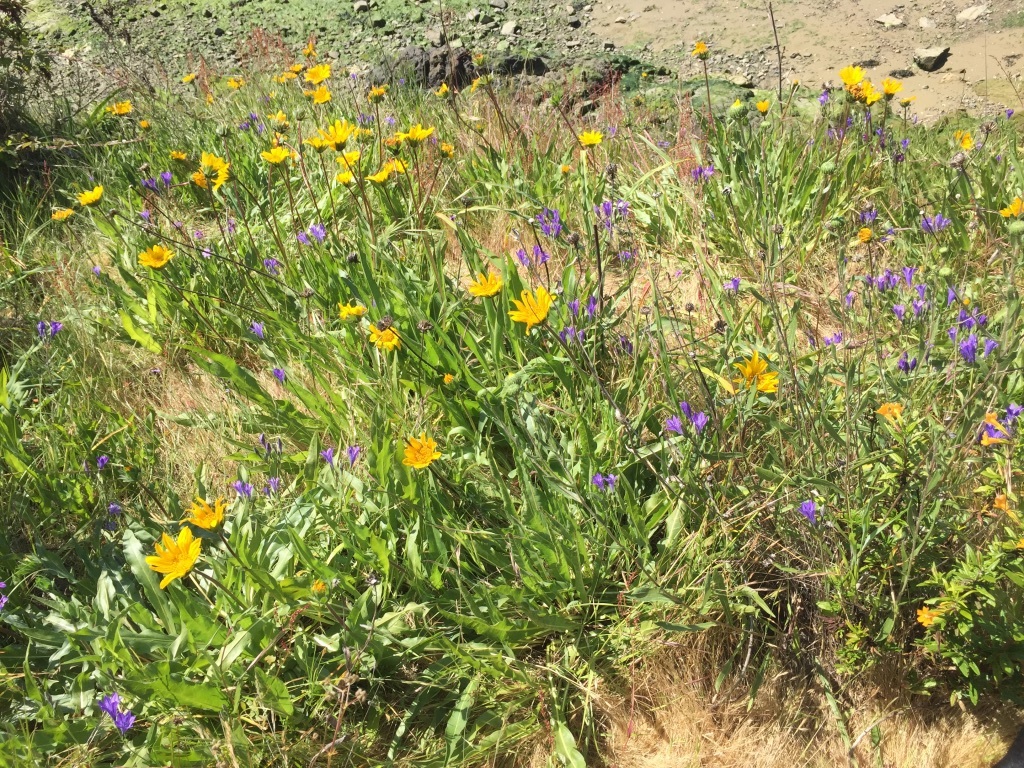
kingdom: Plantae
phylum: Tracheophyta
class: Liliopsida
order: Asparagales
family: Asparagaceae
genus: Triteleia
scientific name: Triteleia laxa
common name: Triplet-lily
